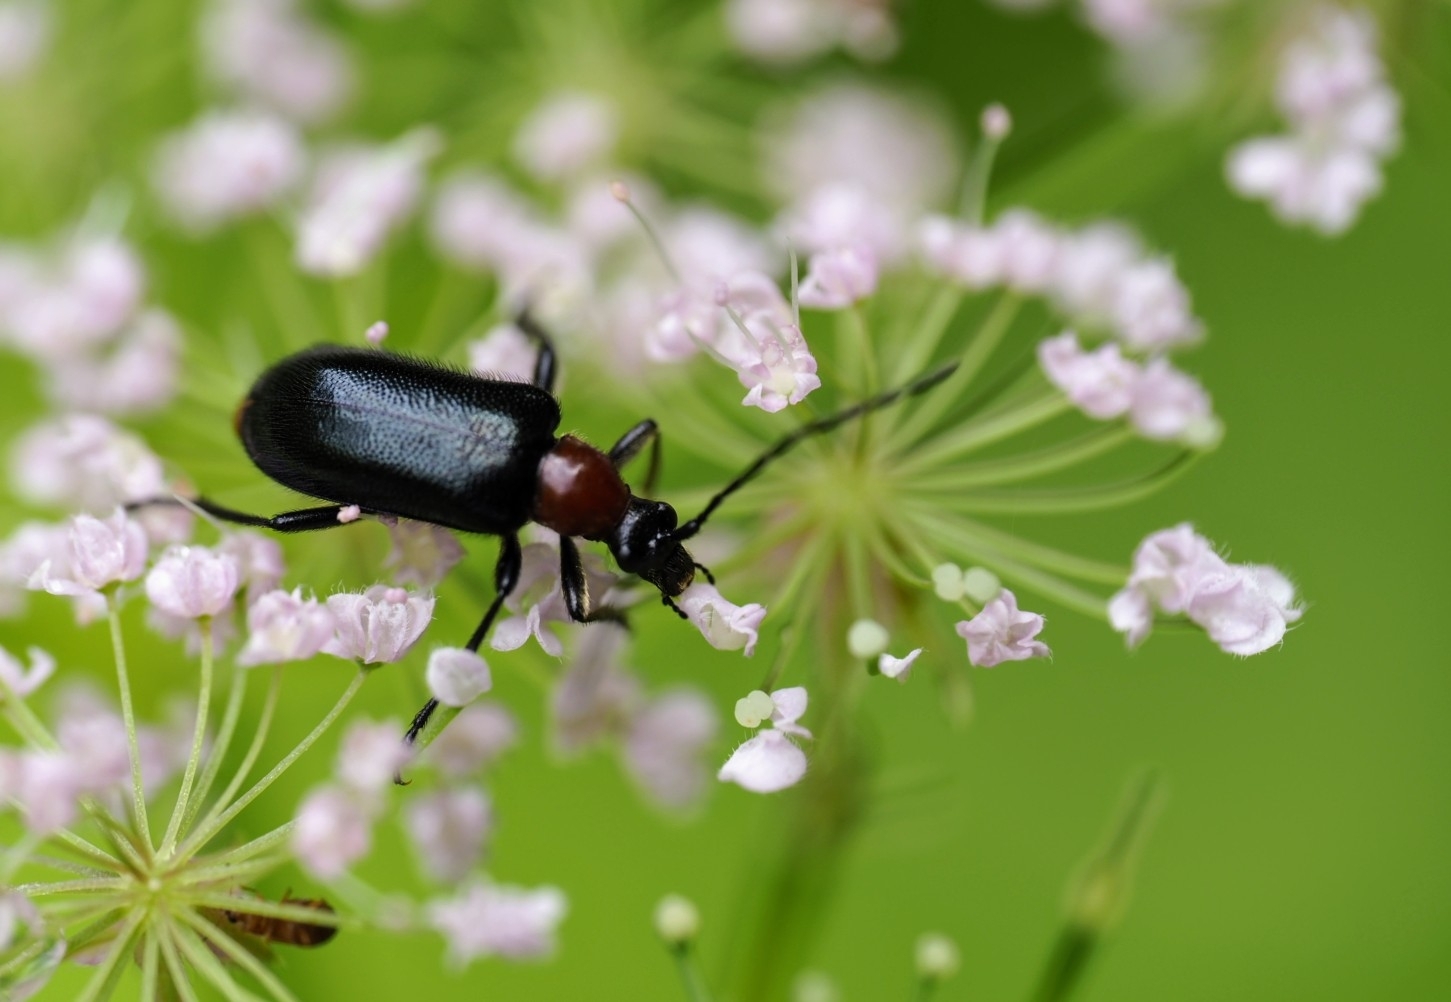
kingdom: Animalia
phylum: Arthropoda
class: Insecta
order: Coleoptera
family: Cerambycidae
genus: Dinoptera
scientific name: Dinoptera collaris
